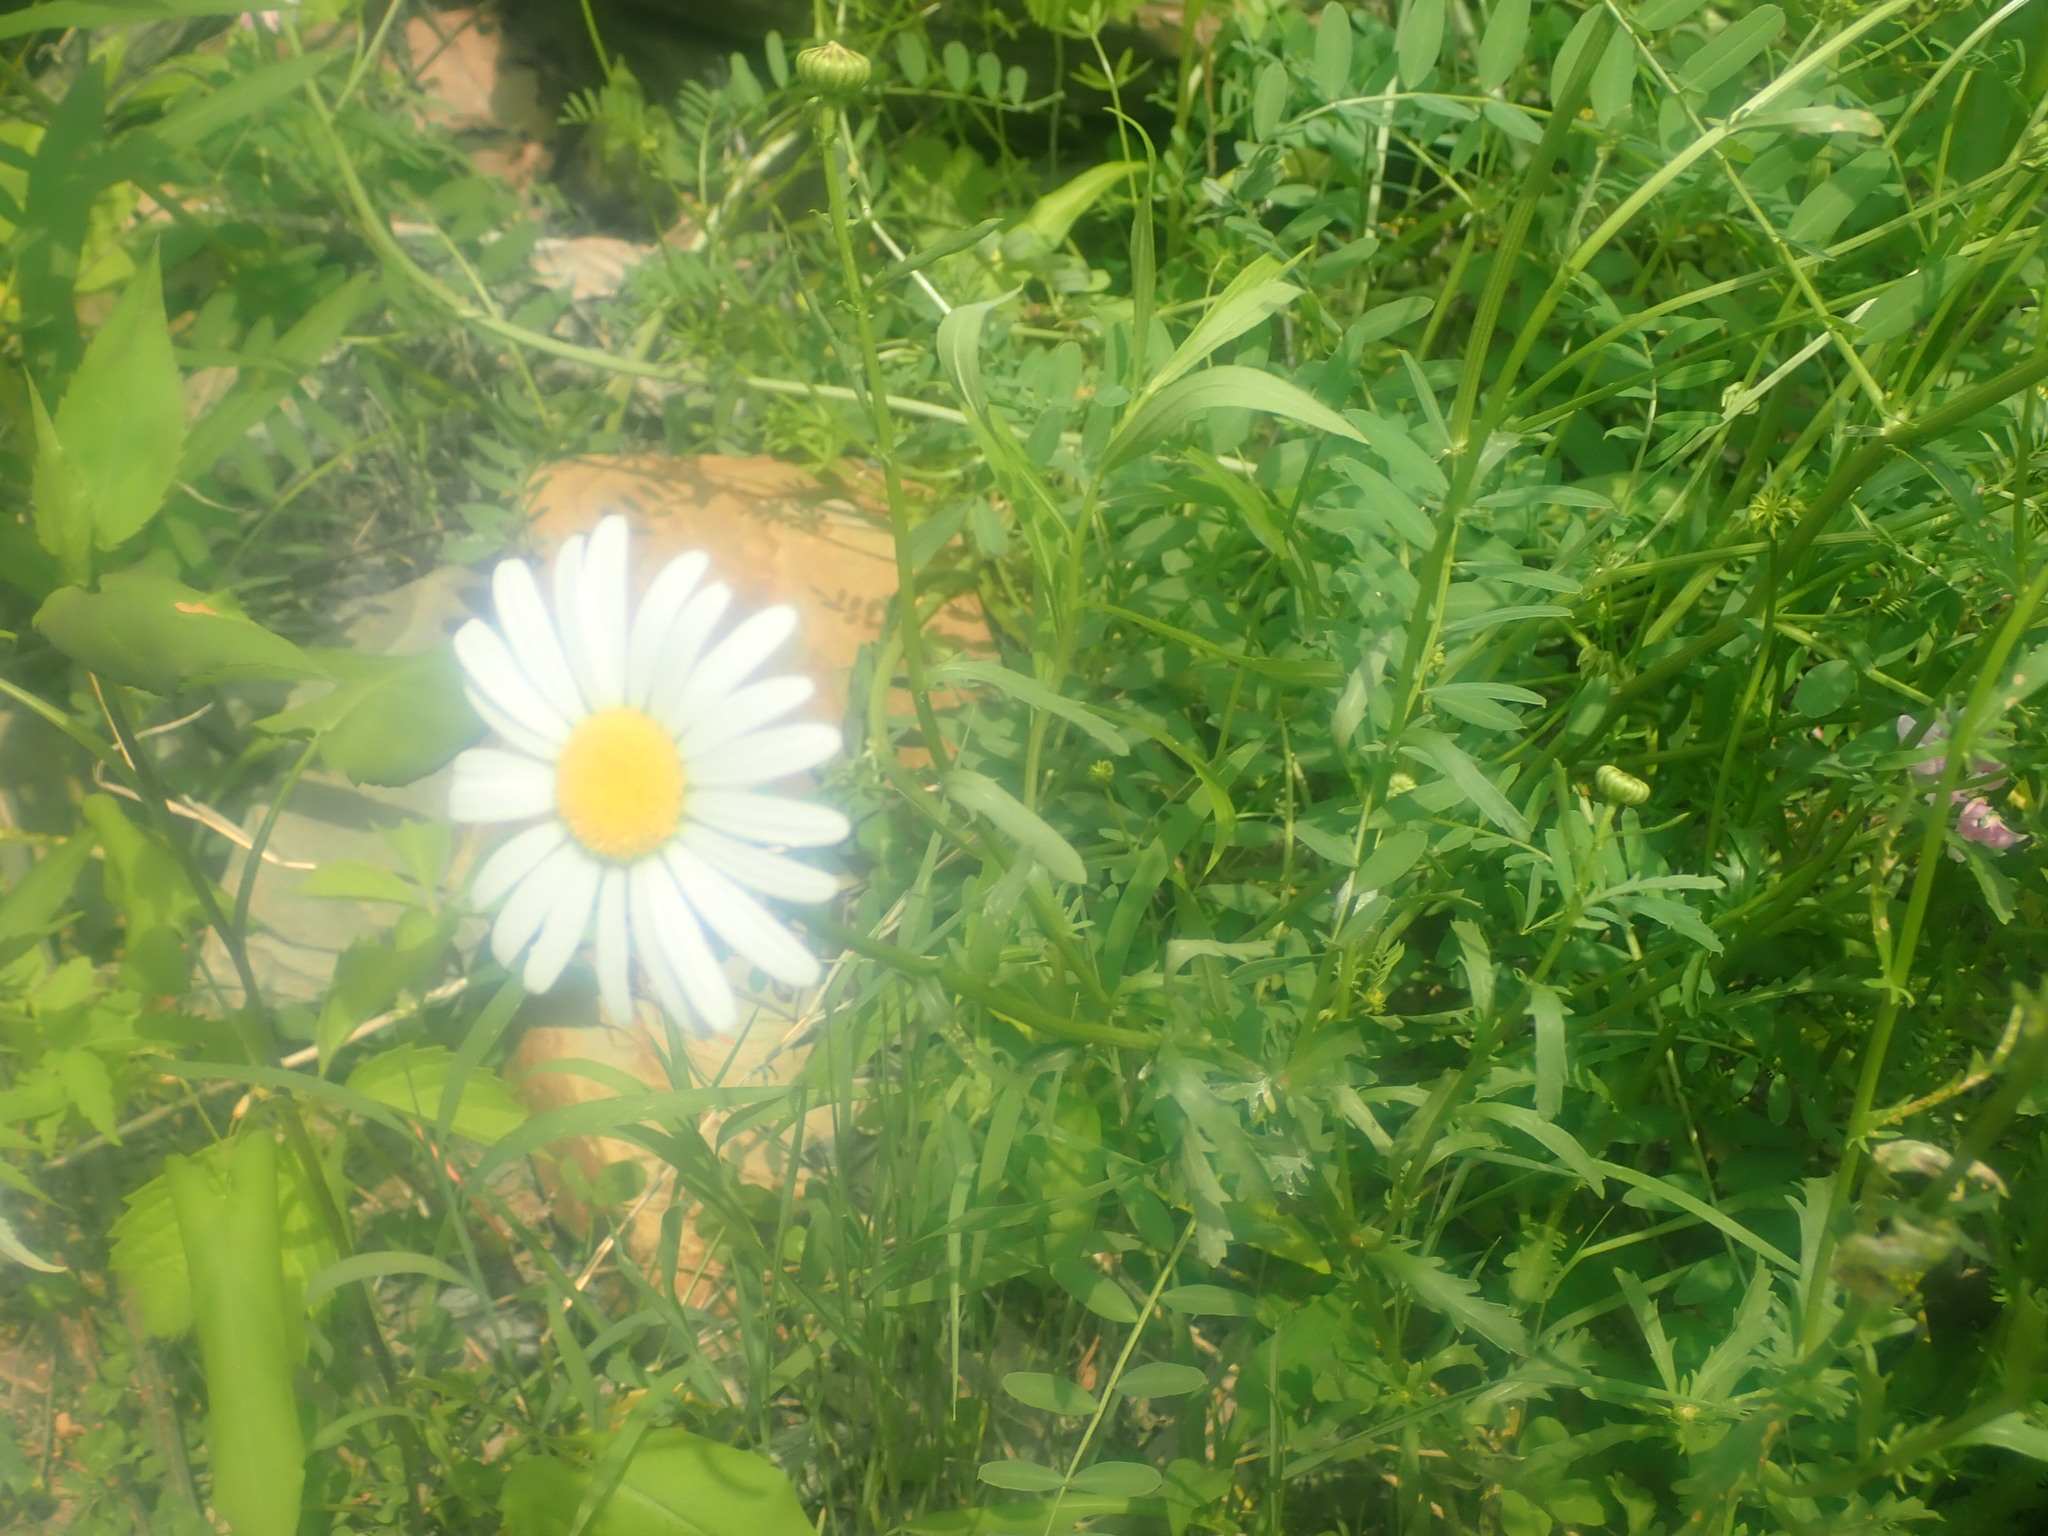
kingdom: Plantae
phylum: Tracheophyta
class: Magnoliopsida
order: Asterales
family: Asteraceae
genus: Leucanthemum
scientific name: Leucanthemum vulgare
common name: Oxeye daisy
